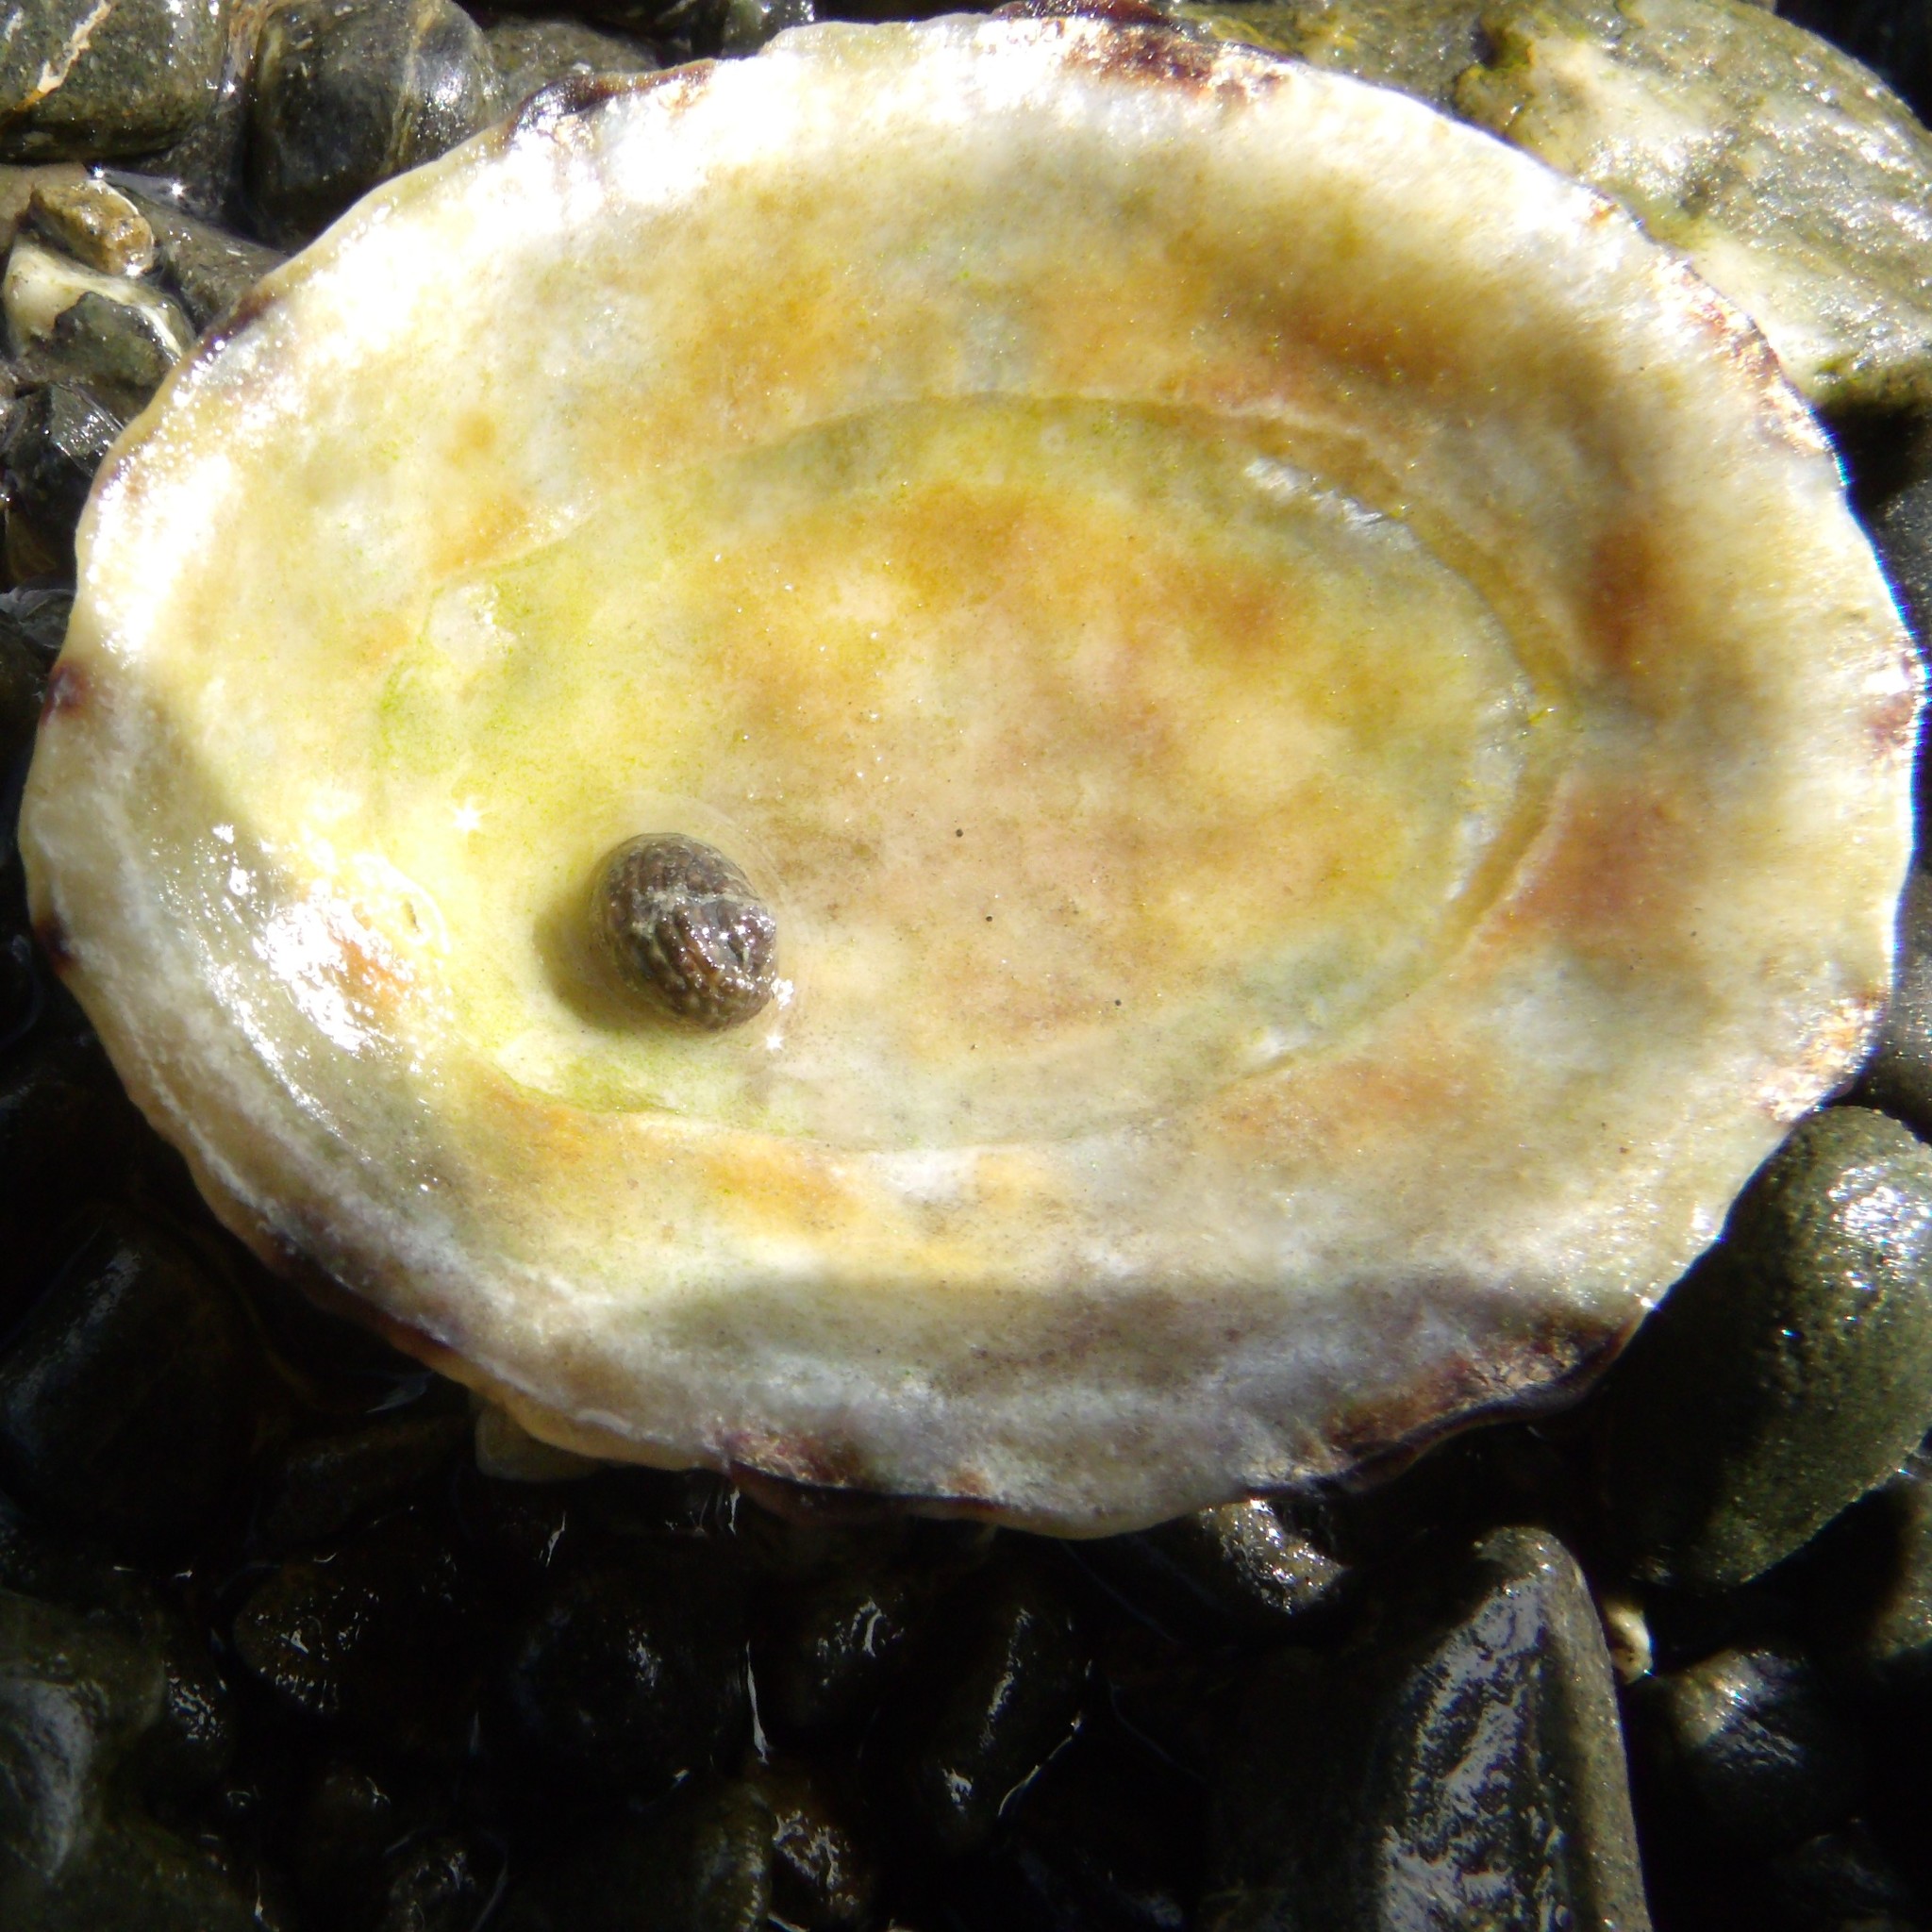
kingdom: Animalia
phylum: Mollusca
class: Gastropoda
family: Nacellidae
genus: Cellana
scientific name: Cellana radians
